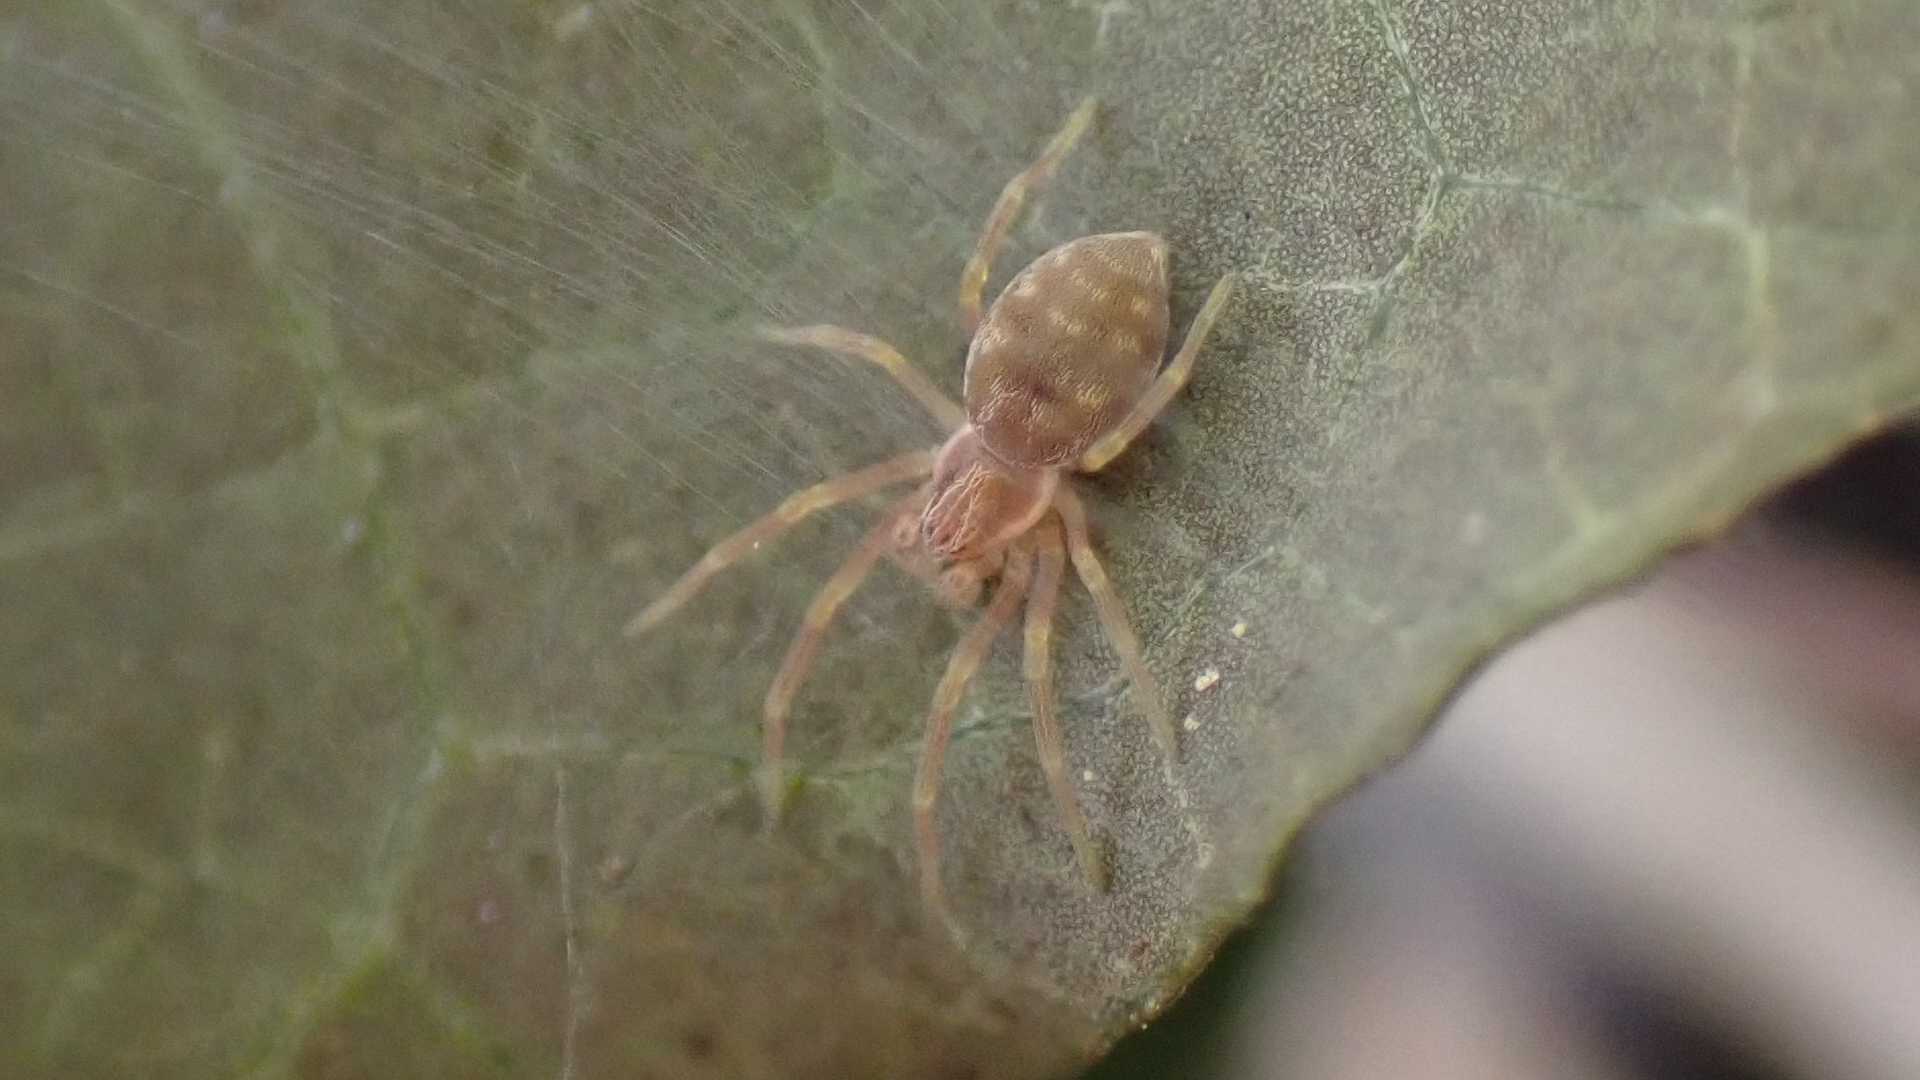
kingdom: Animalia
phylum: Arthropoda
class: Arachnida
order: Araneae
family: Dictynidae
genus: Nigma
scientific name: Nigma flavescens
